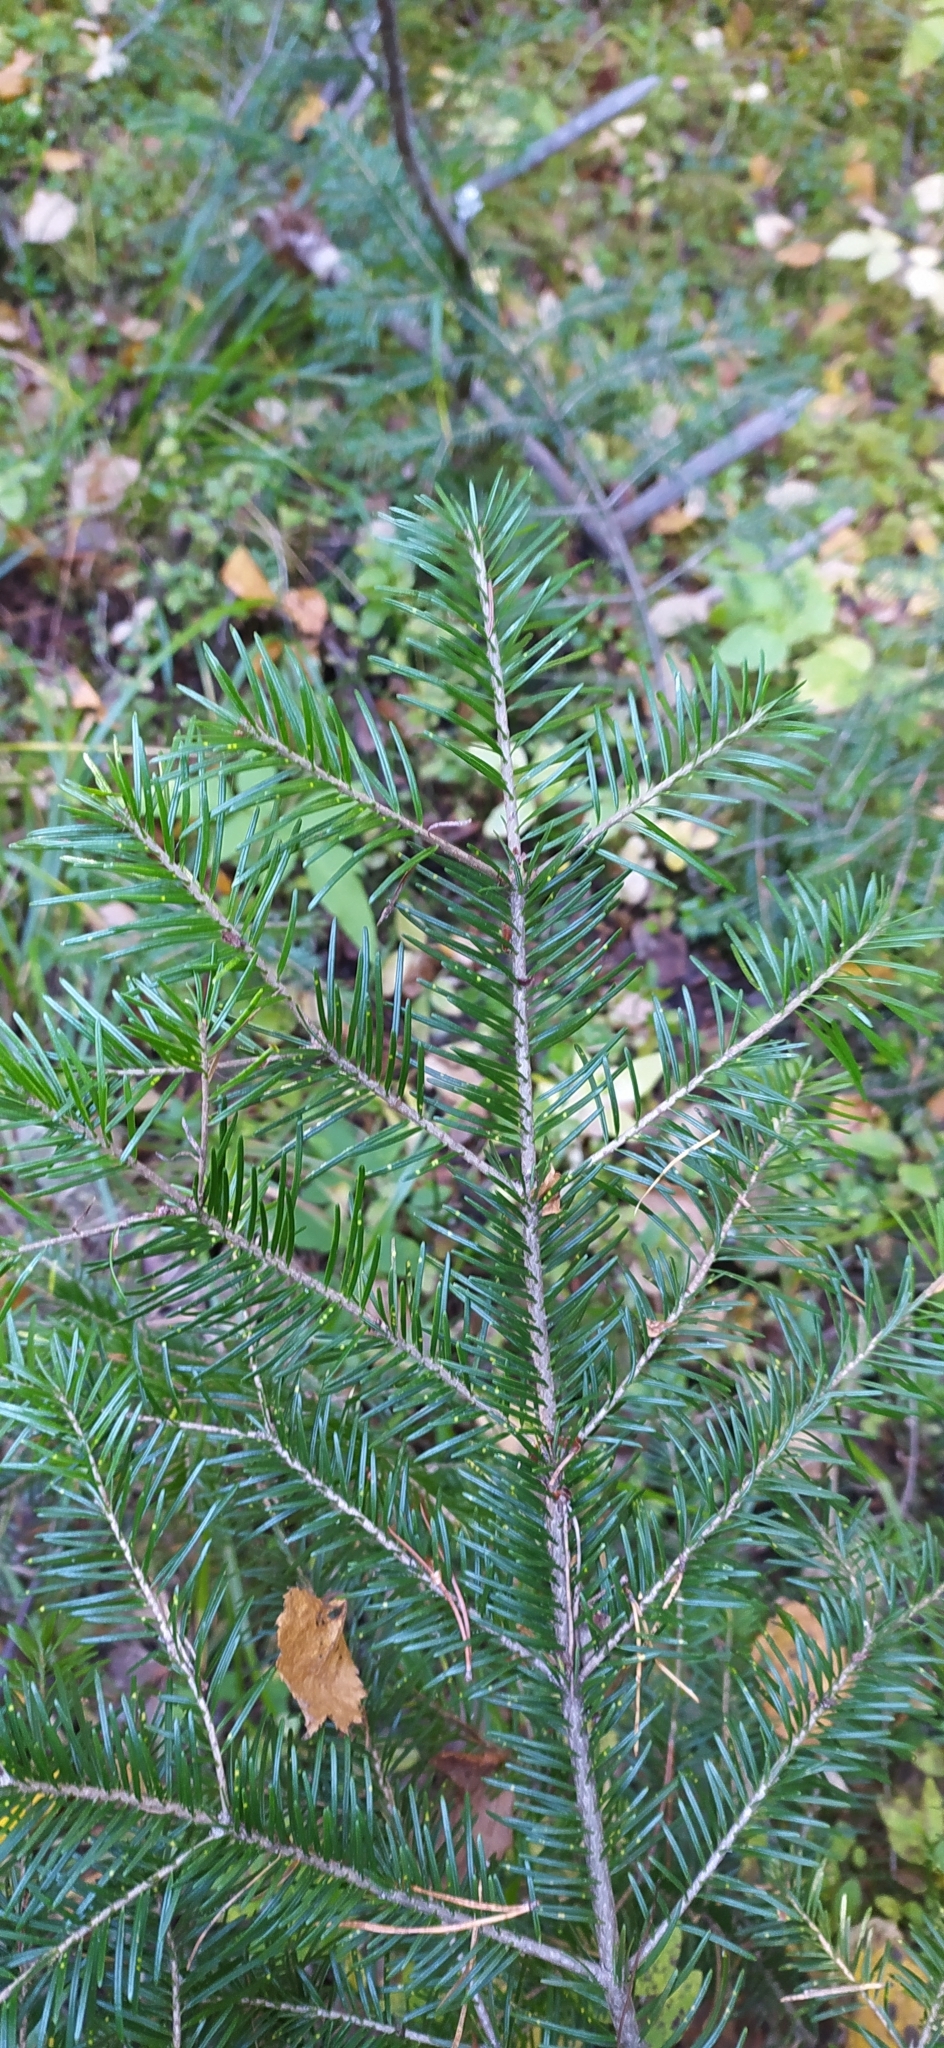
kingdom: Plantae
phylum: Tracheophyta
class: Pinopsida
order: Pinales
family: Pinaceae
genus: Abies
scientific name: Abies sibirica
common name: Siberian fir
